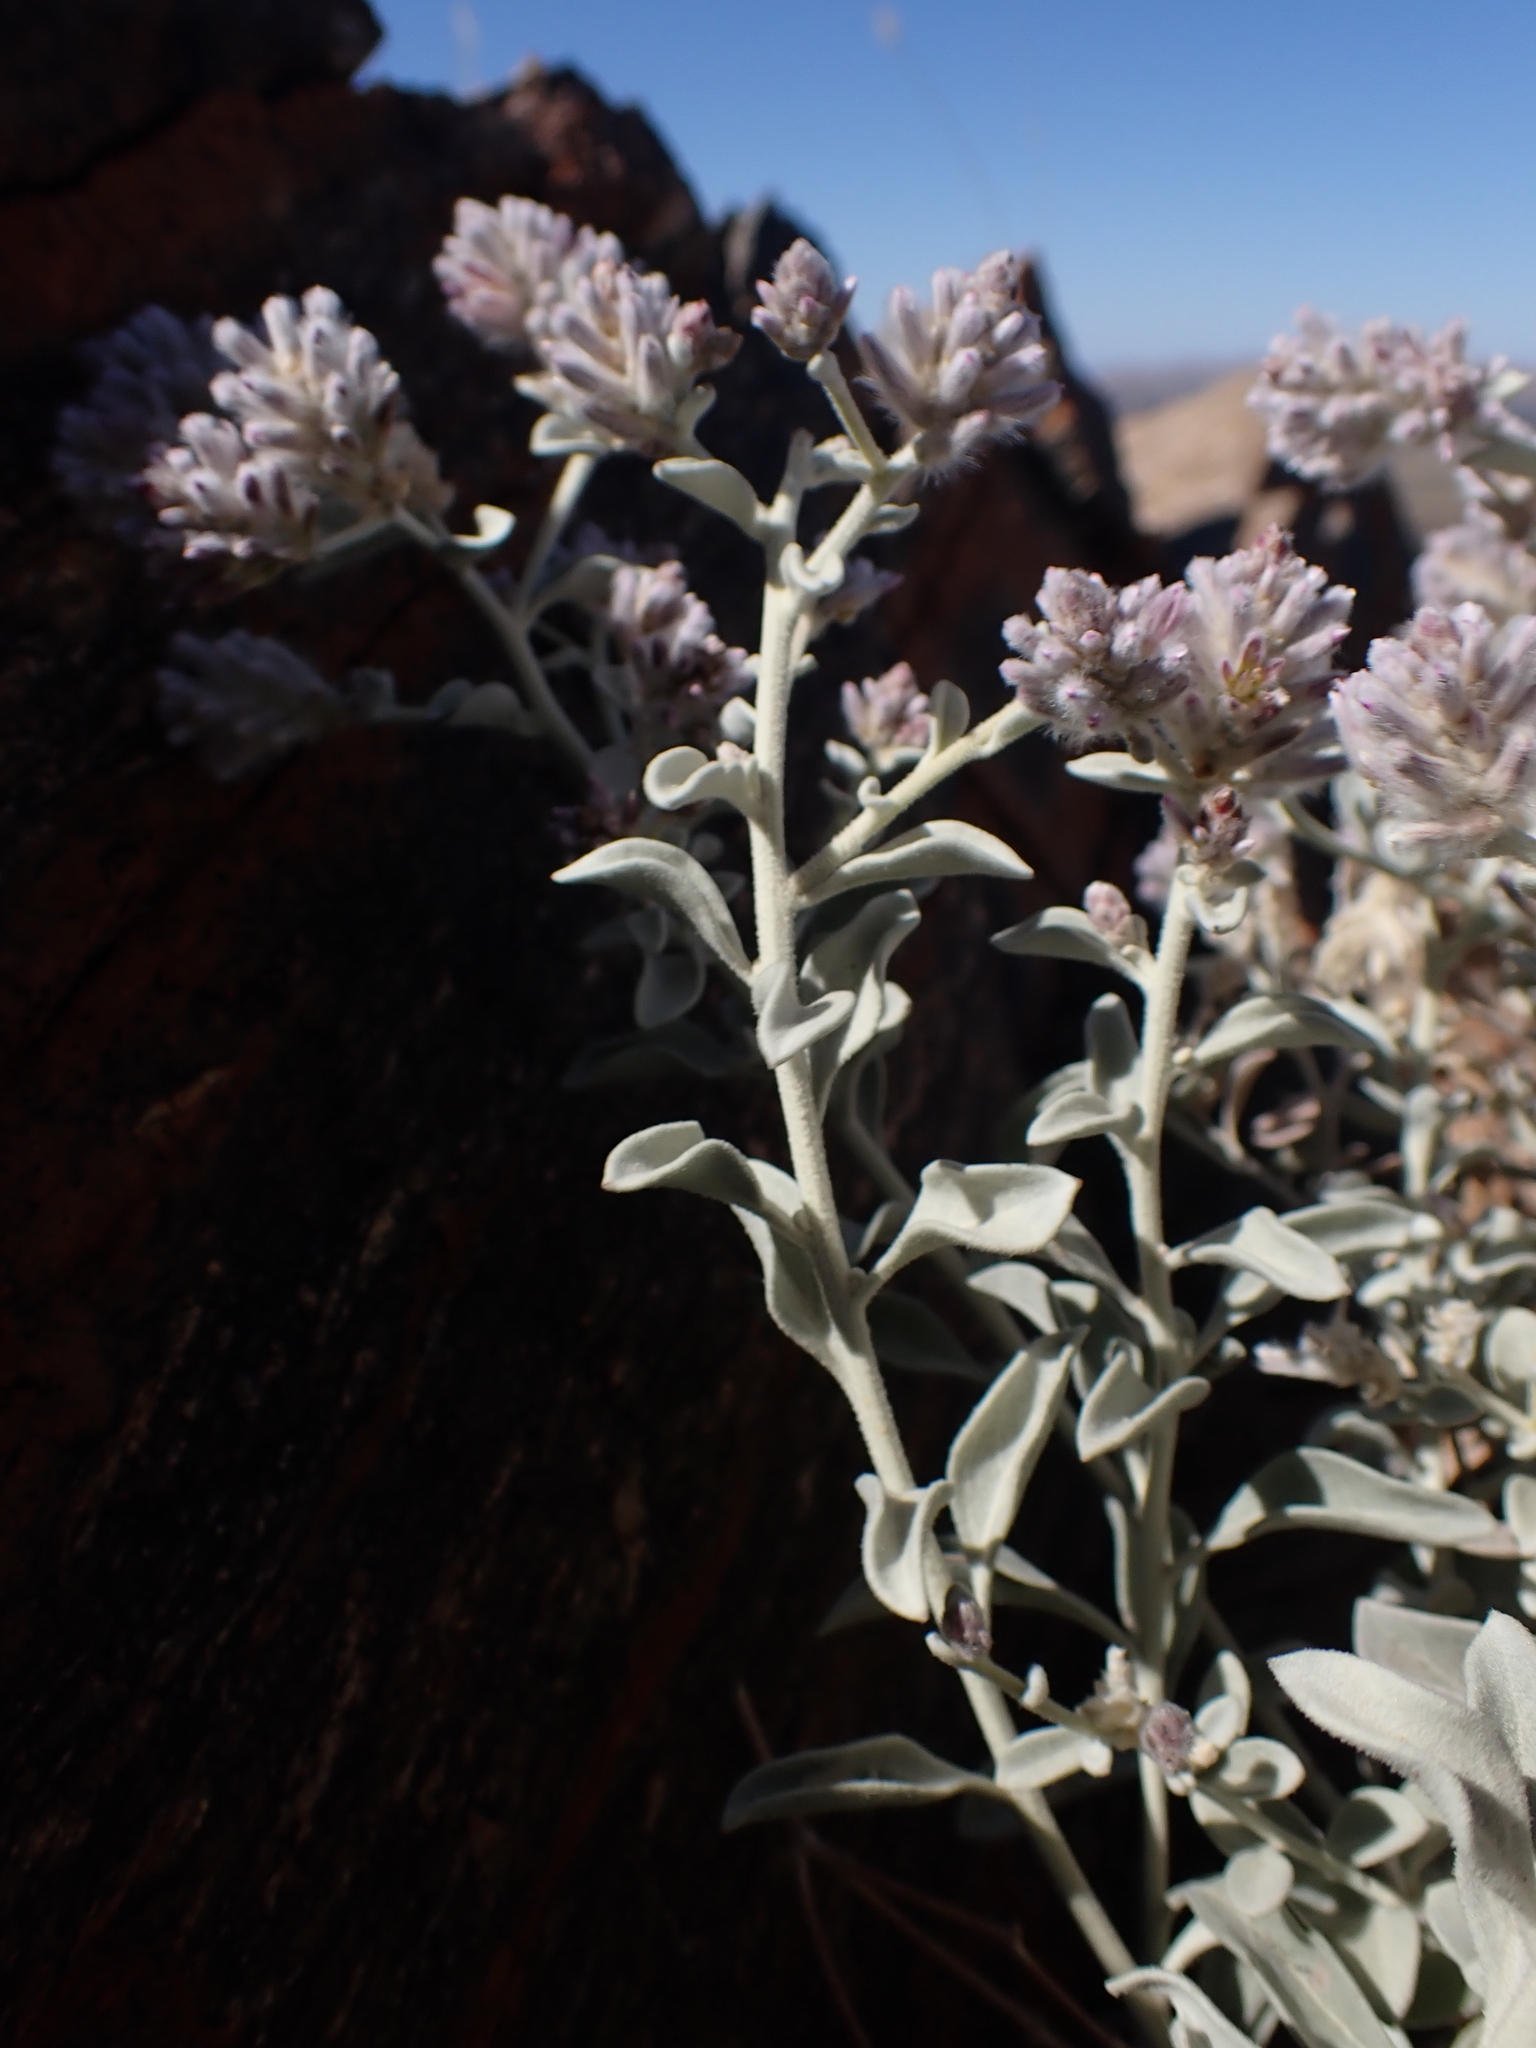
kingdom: Plantae
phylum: Tracheophyta
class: Magnoliopsida
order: Caryophyllales
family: Amaranthaceae
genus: Ptilotus
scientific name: Ptilotus obovatus
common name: Cottonbush
